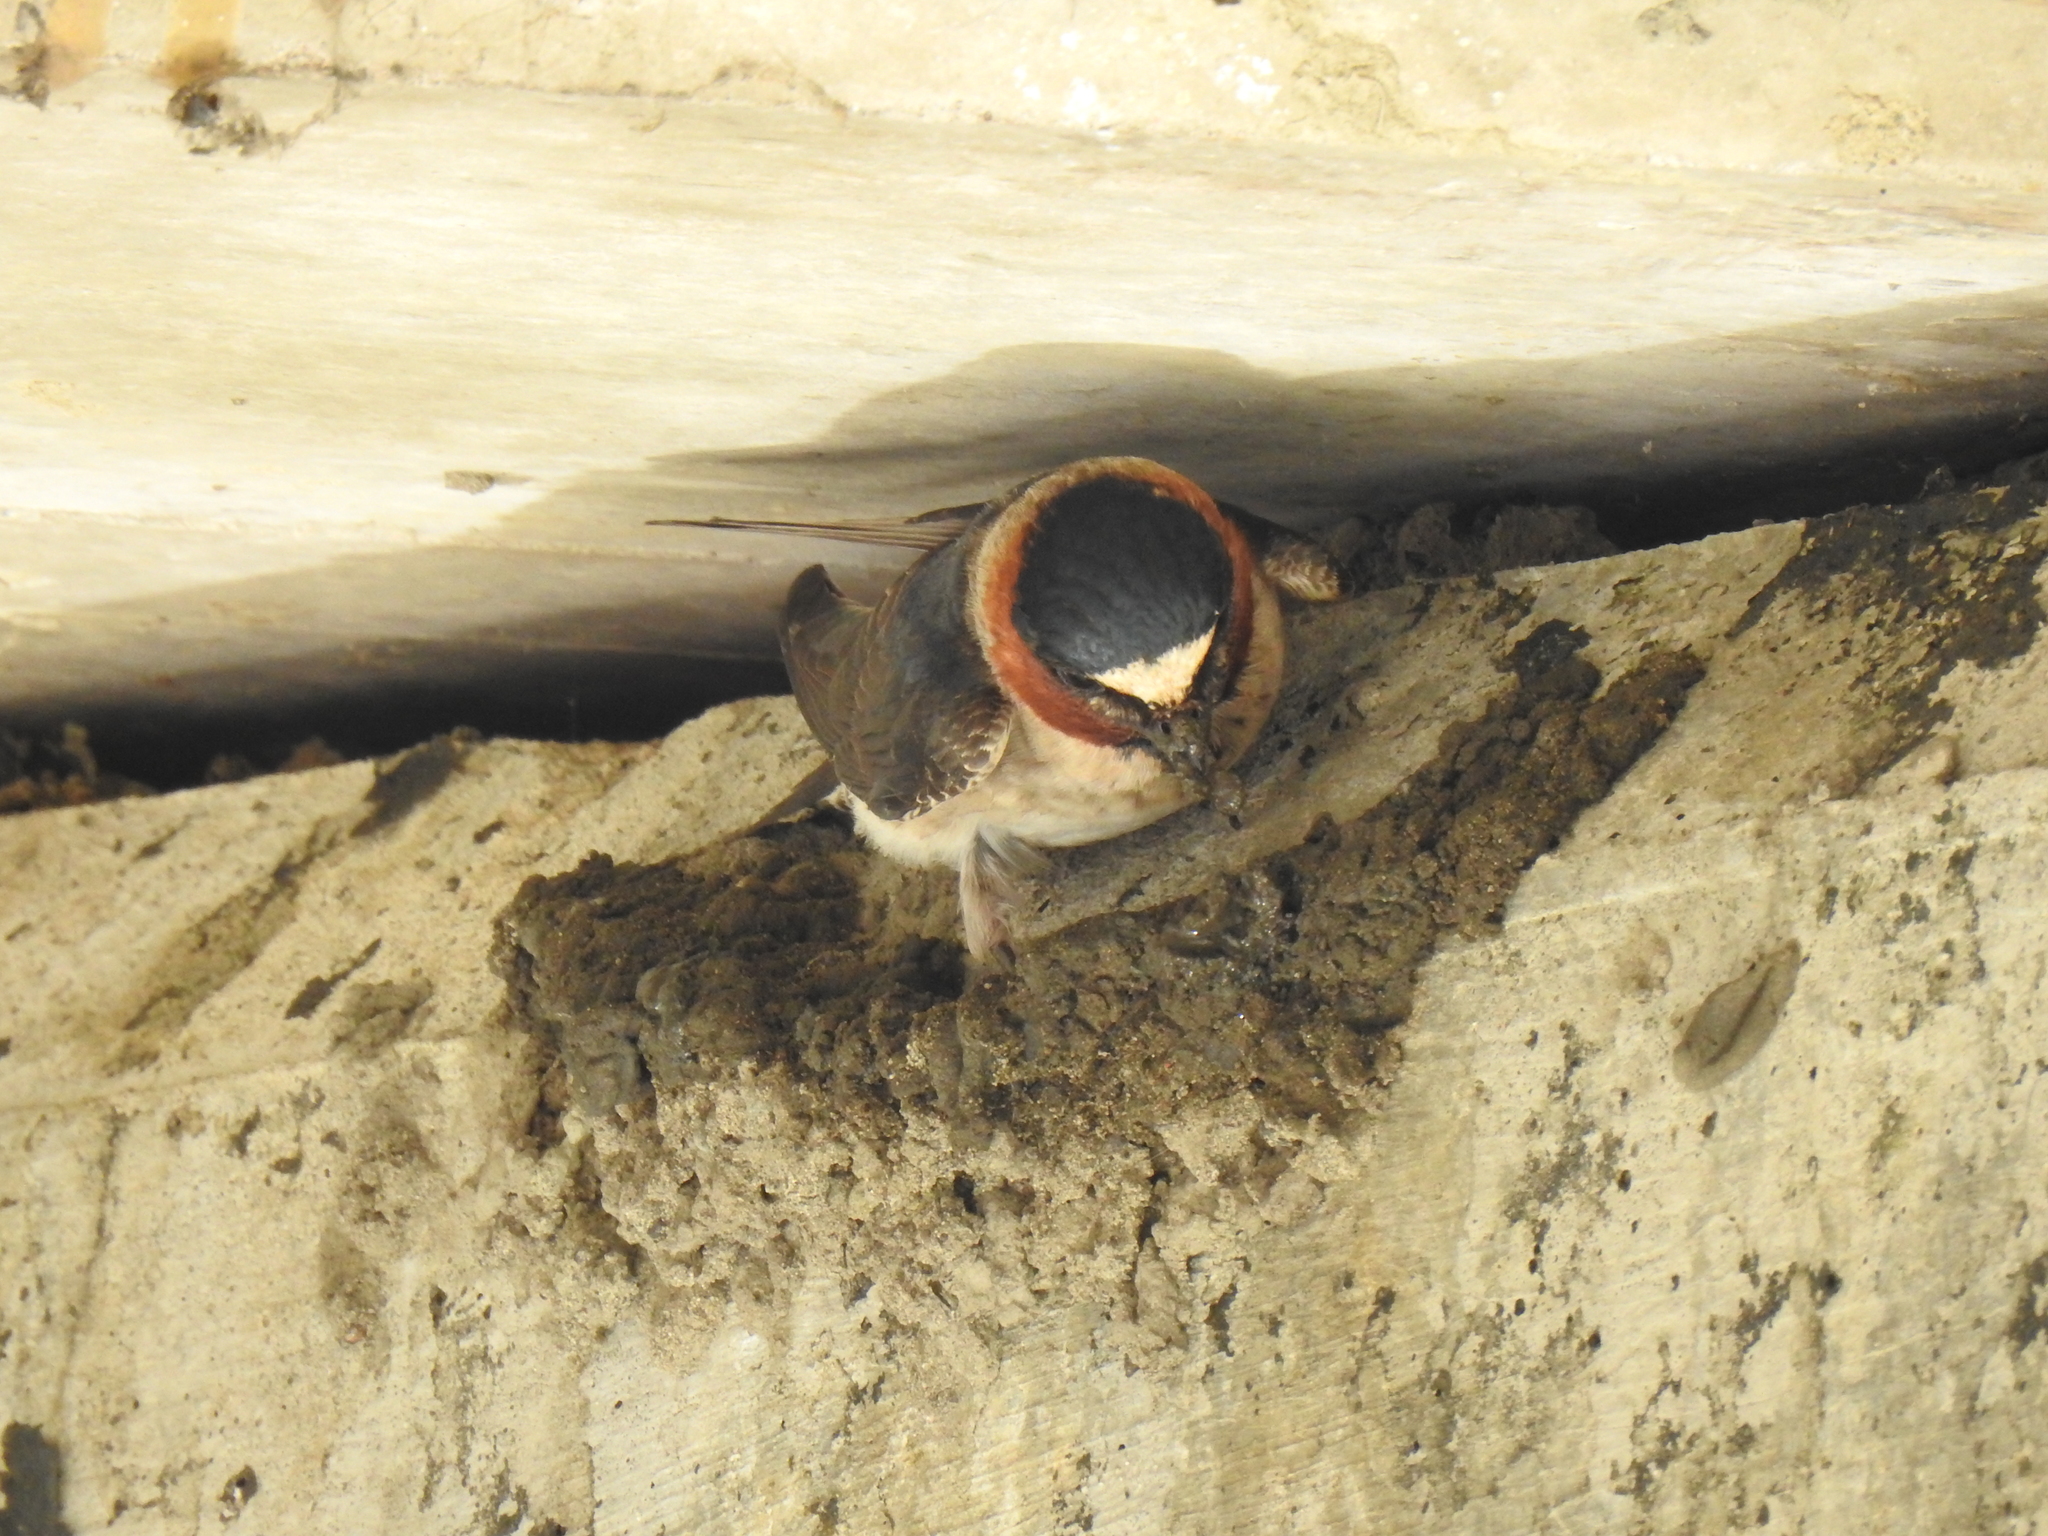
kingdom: Animalia
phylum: Chordata
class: Aves
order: Passeriformes
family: Hirundinidae
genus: Petrochelidon
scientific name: Petrochelidon pyrrhonota
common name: American cliff swallow
